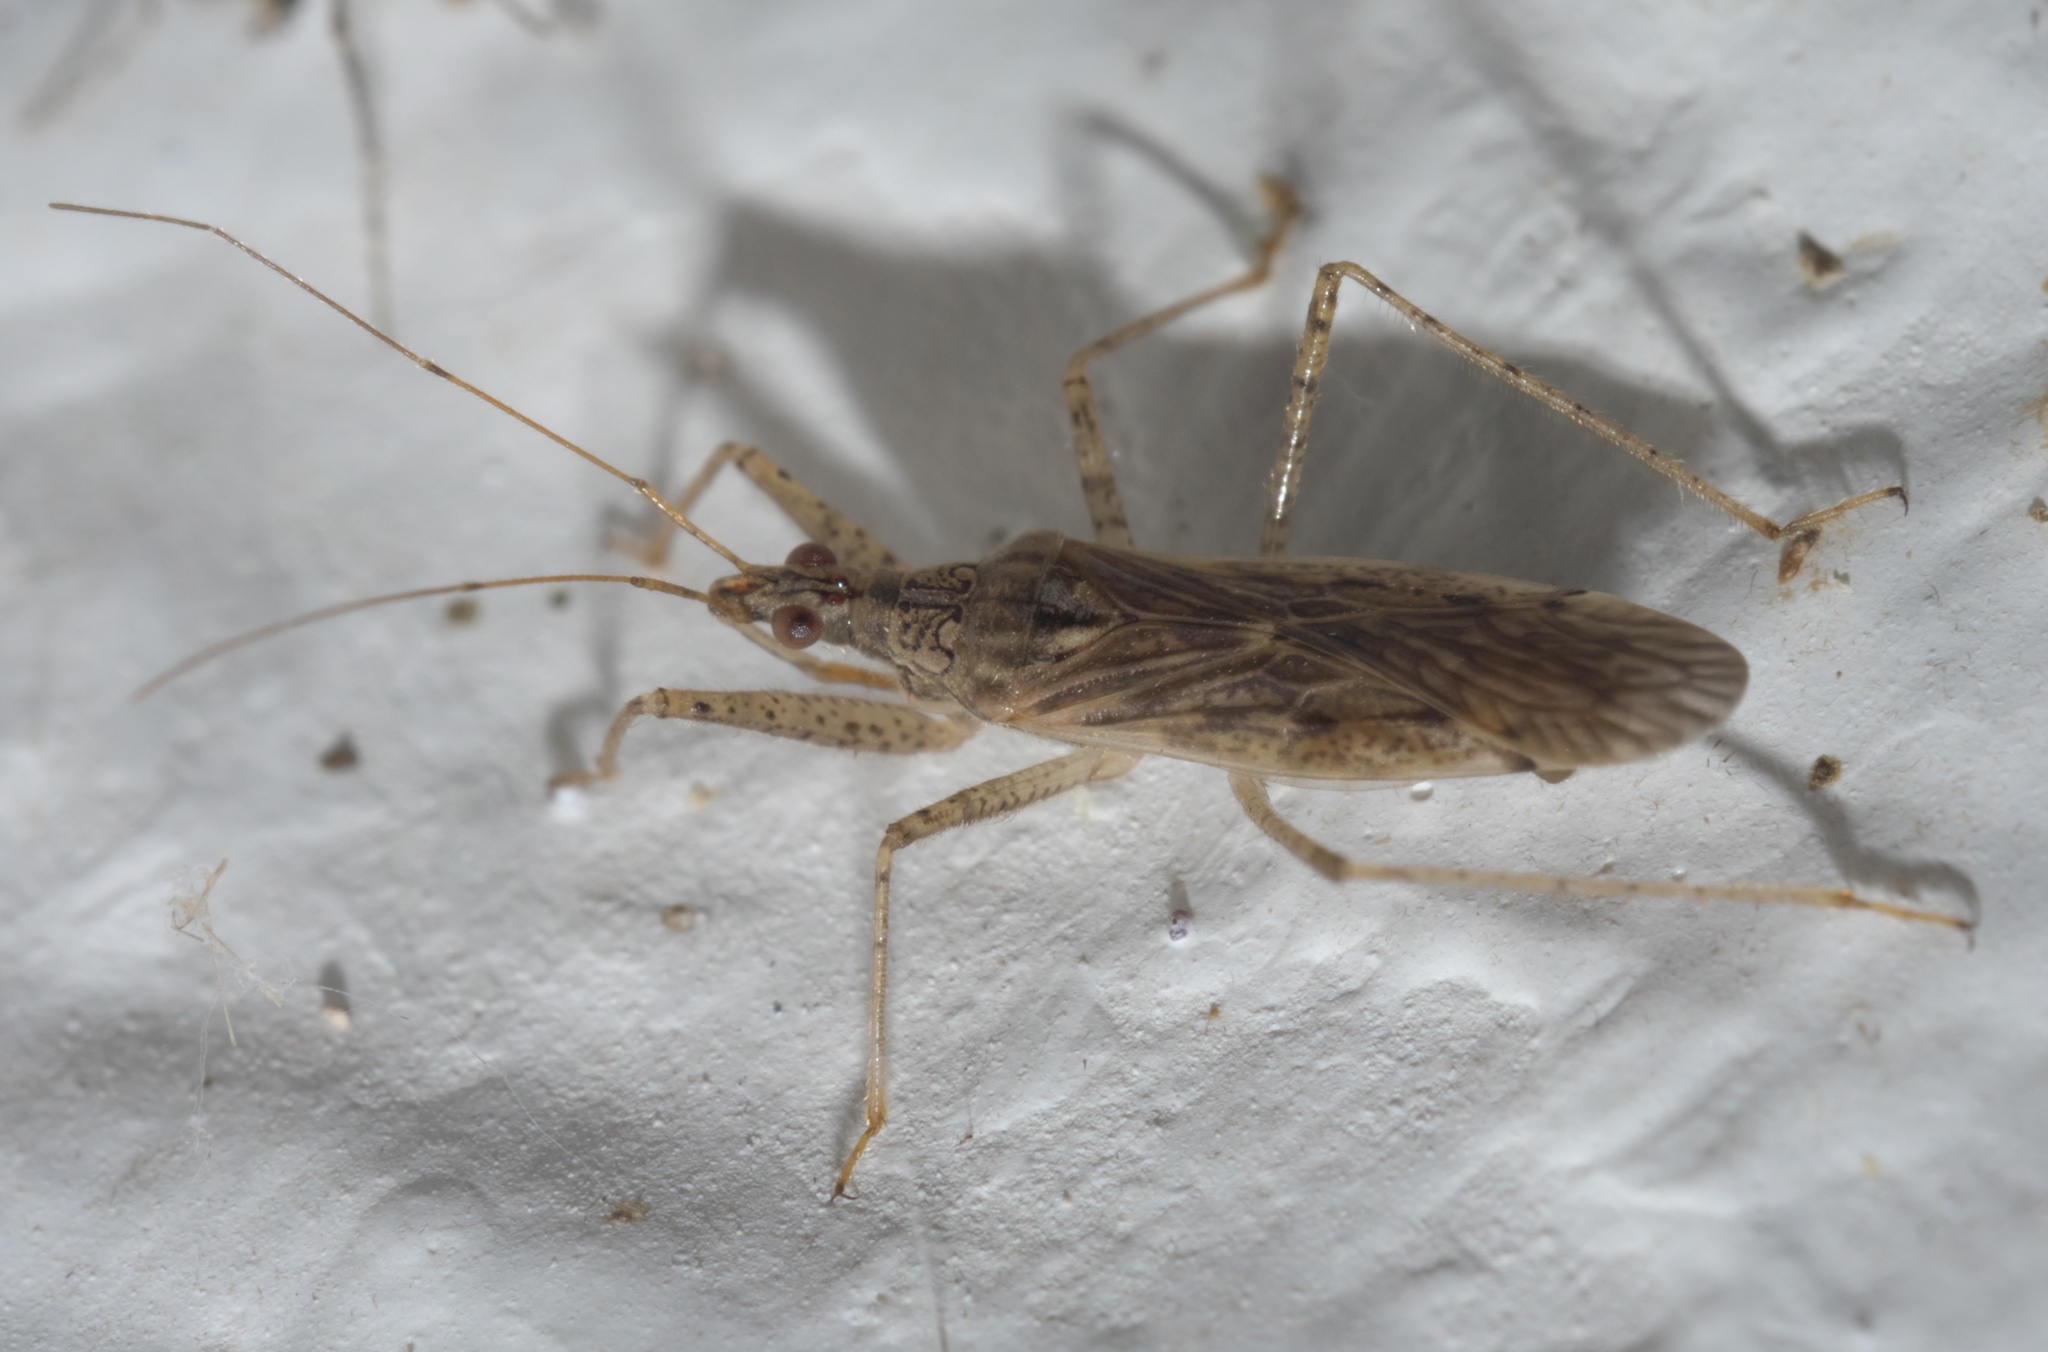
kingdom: Animalia
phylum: Arthropoda
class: Insecta
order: Hemiptera
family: Nabidae
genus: Nabis
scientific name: Nabis roseipennis
